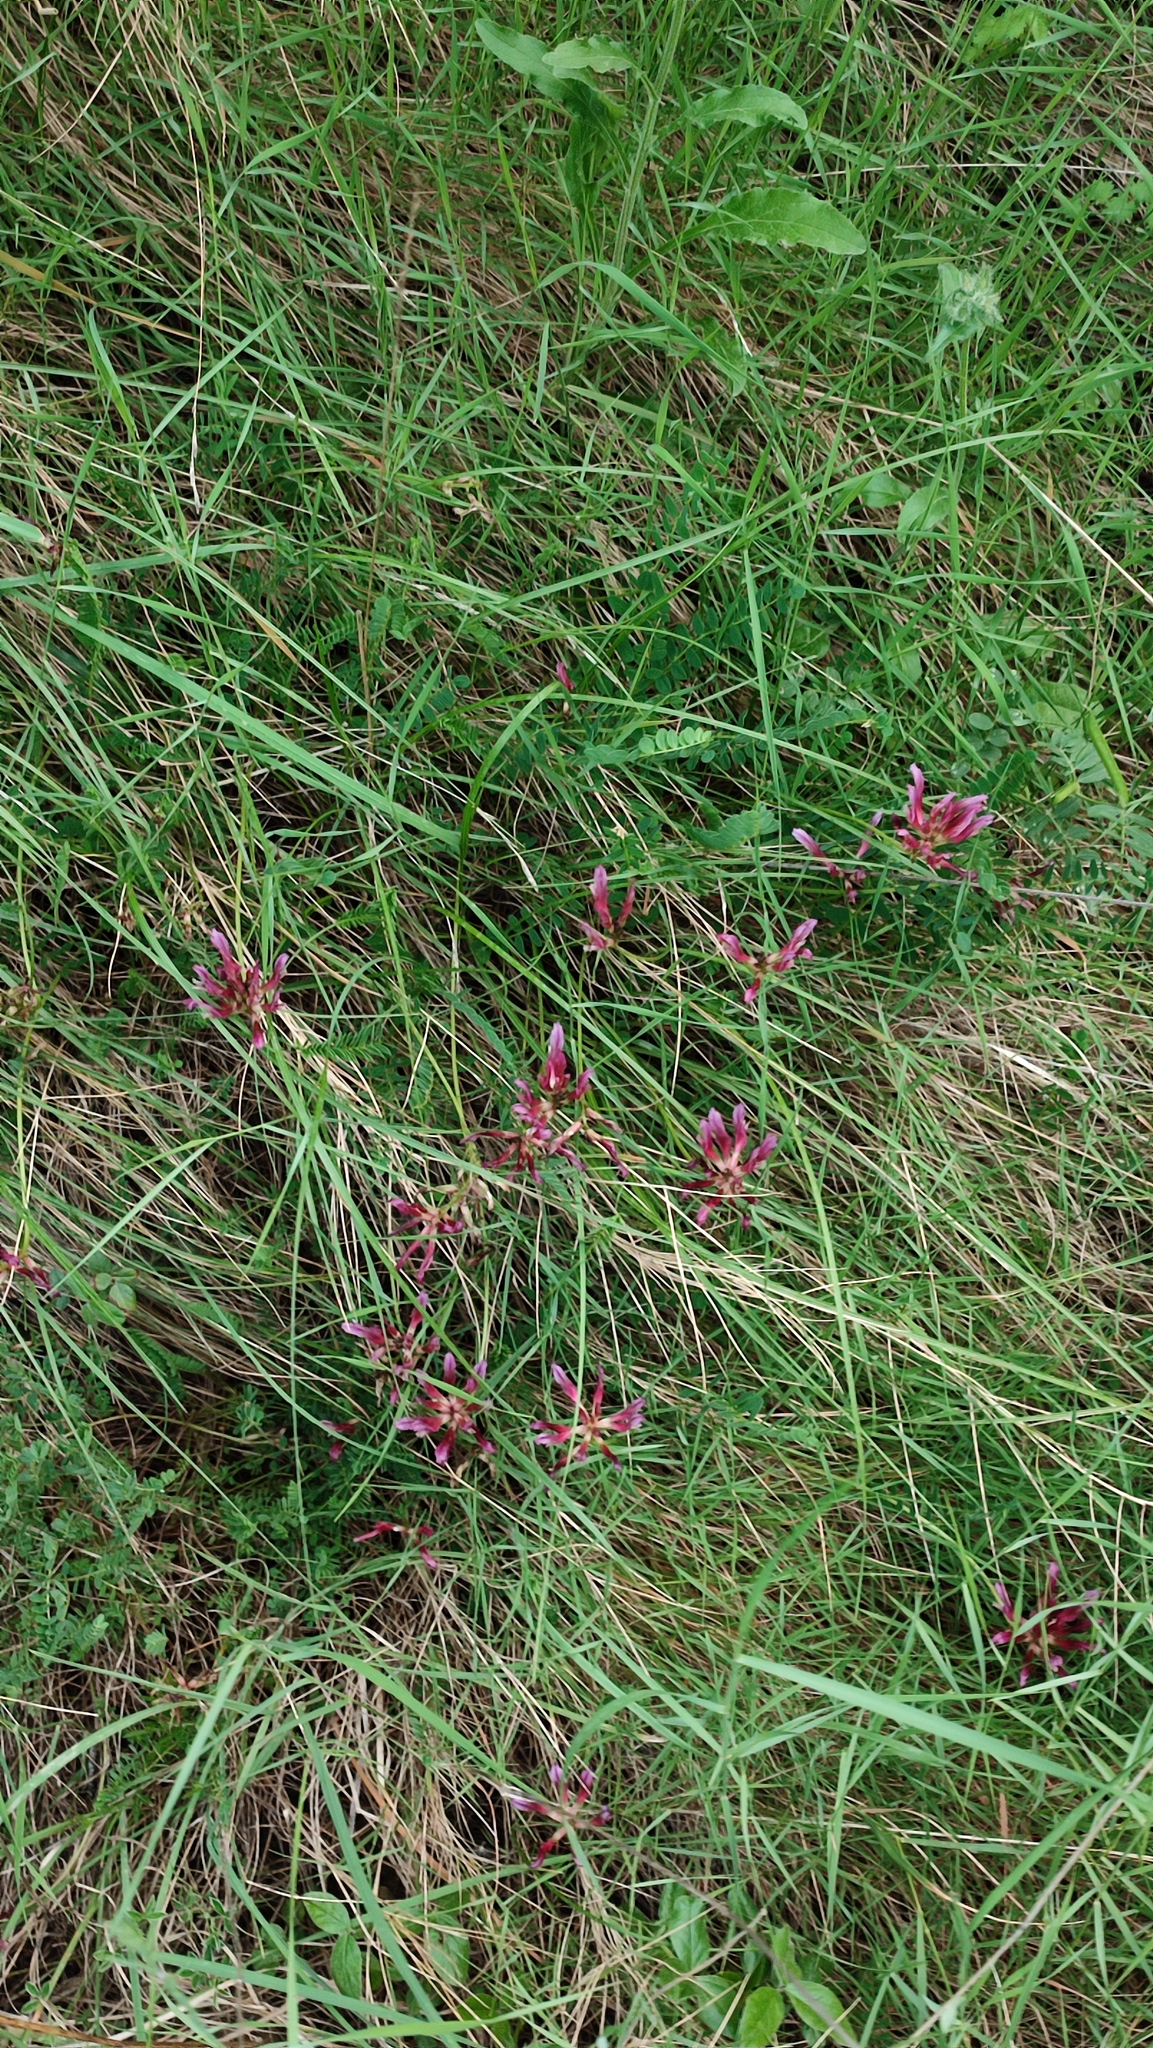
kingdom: Plantae
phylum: Tracheophyta
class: Magnoliopsida
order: Fabales
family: Fabaceae
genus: Astragalus
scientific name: Astragalus monspessulanus
